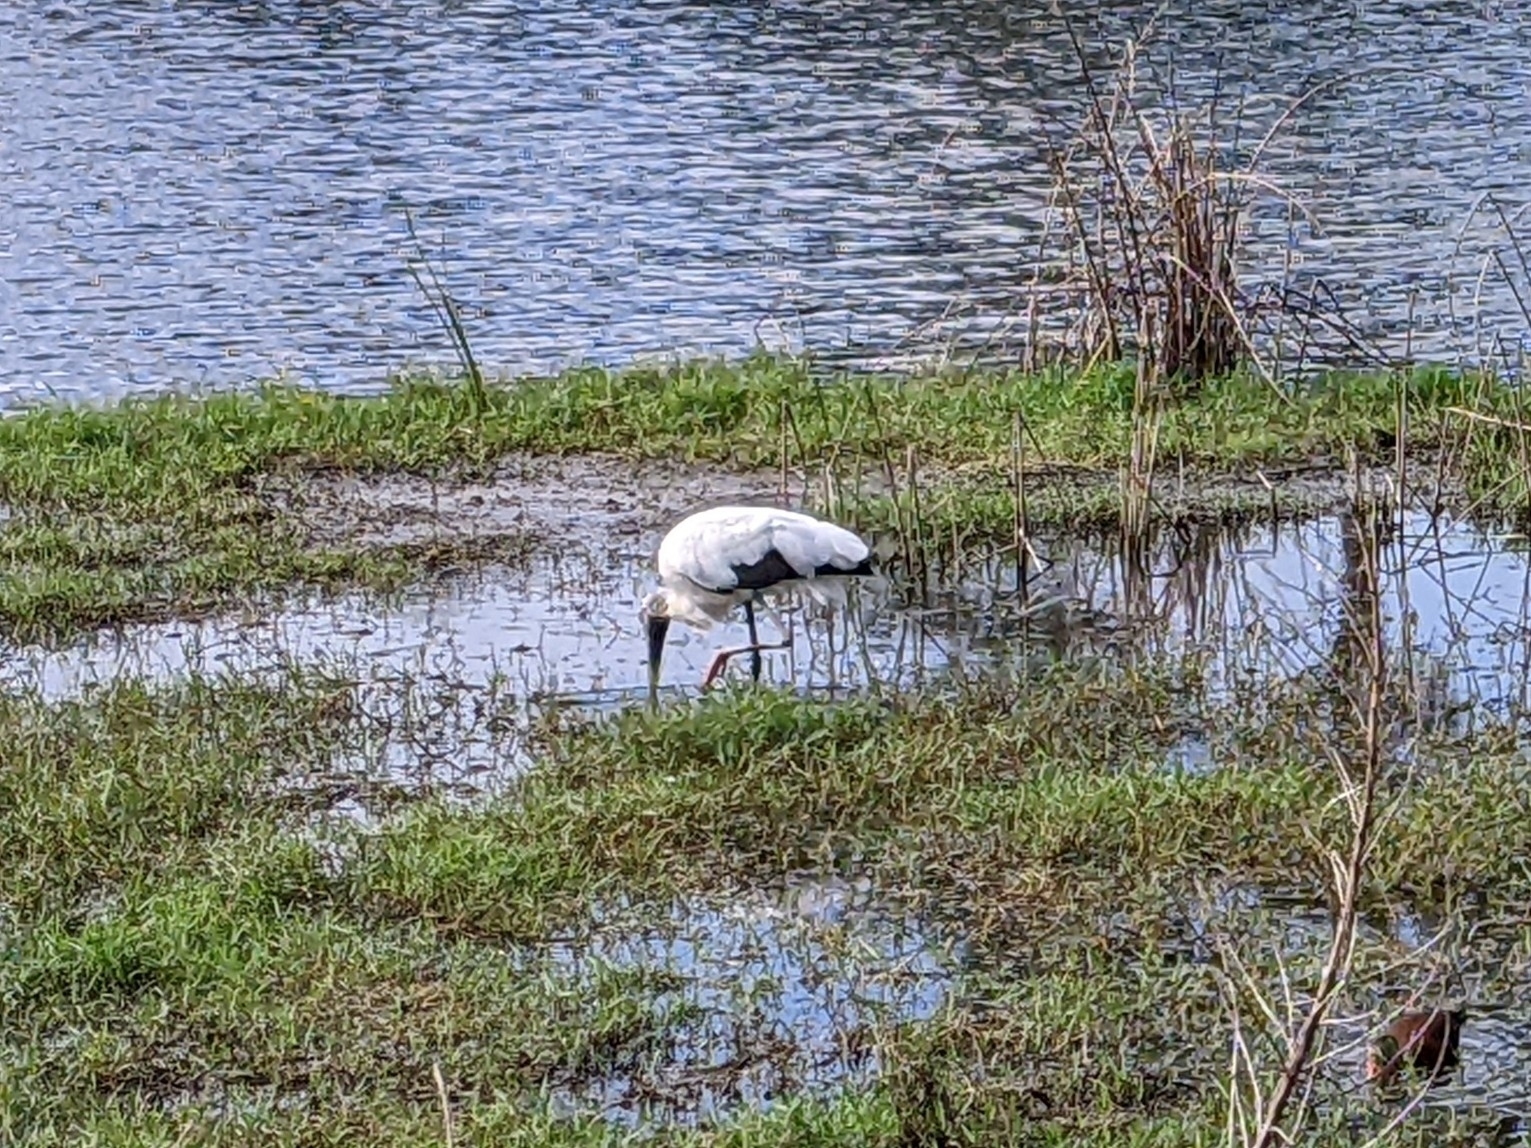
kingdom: Animalia
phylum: Chordata
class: Aves
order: Ciconiiformes
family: Ciconiidae
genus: Mycteria
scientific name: Mycteria americana
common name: Wood stork
